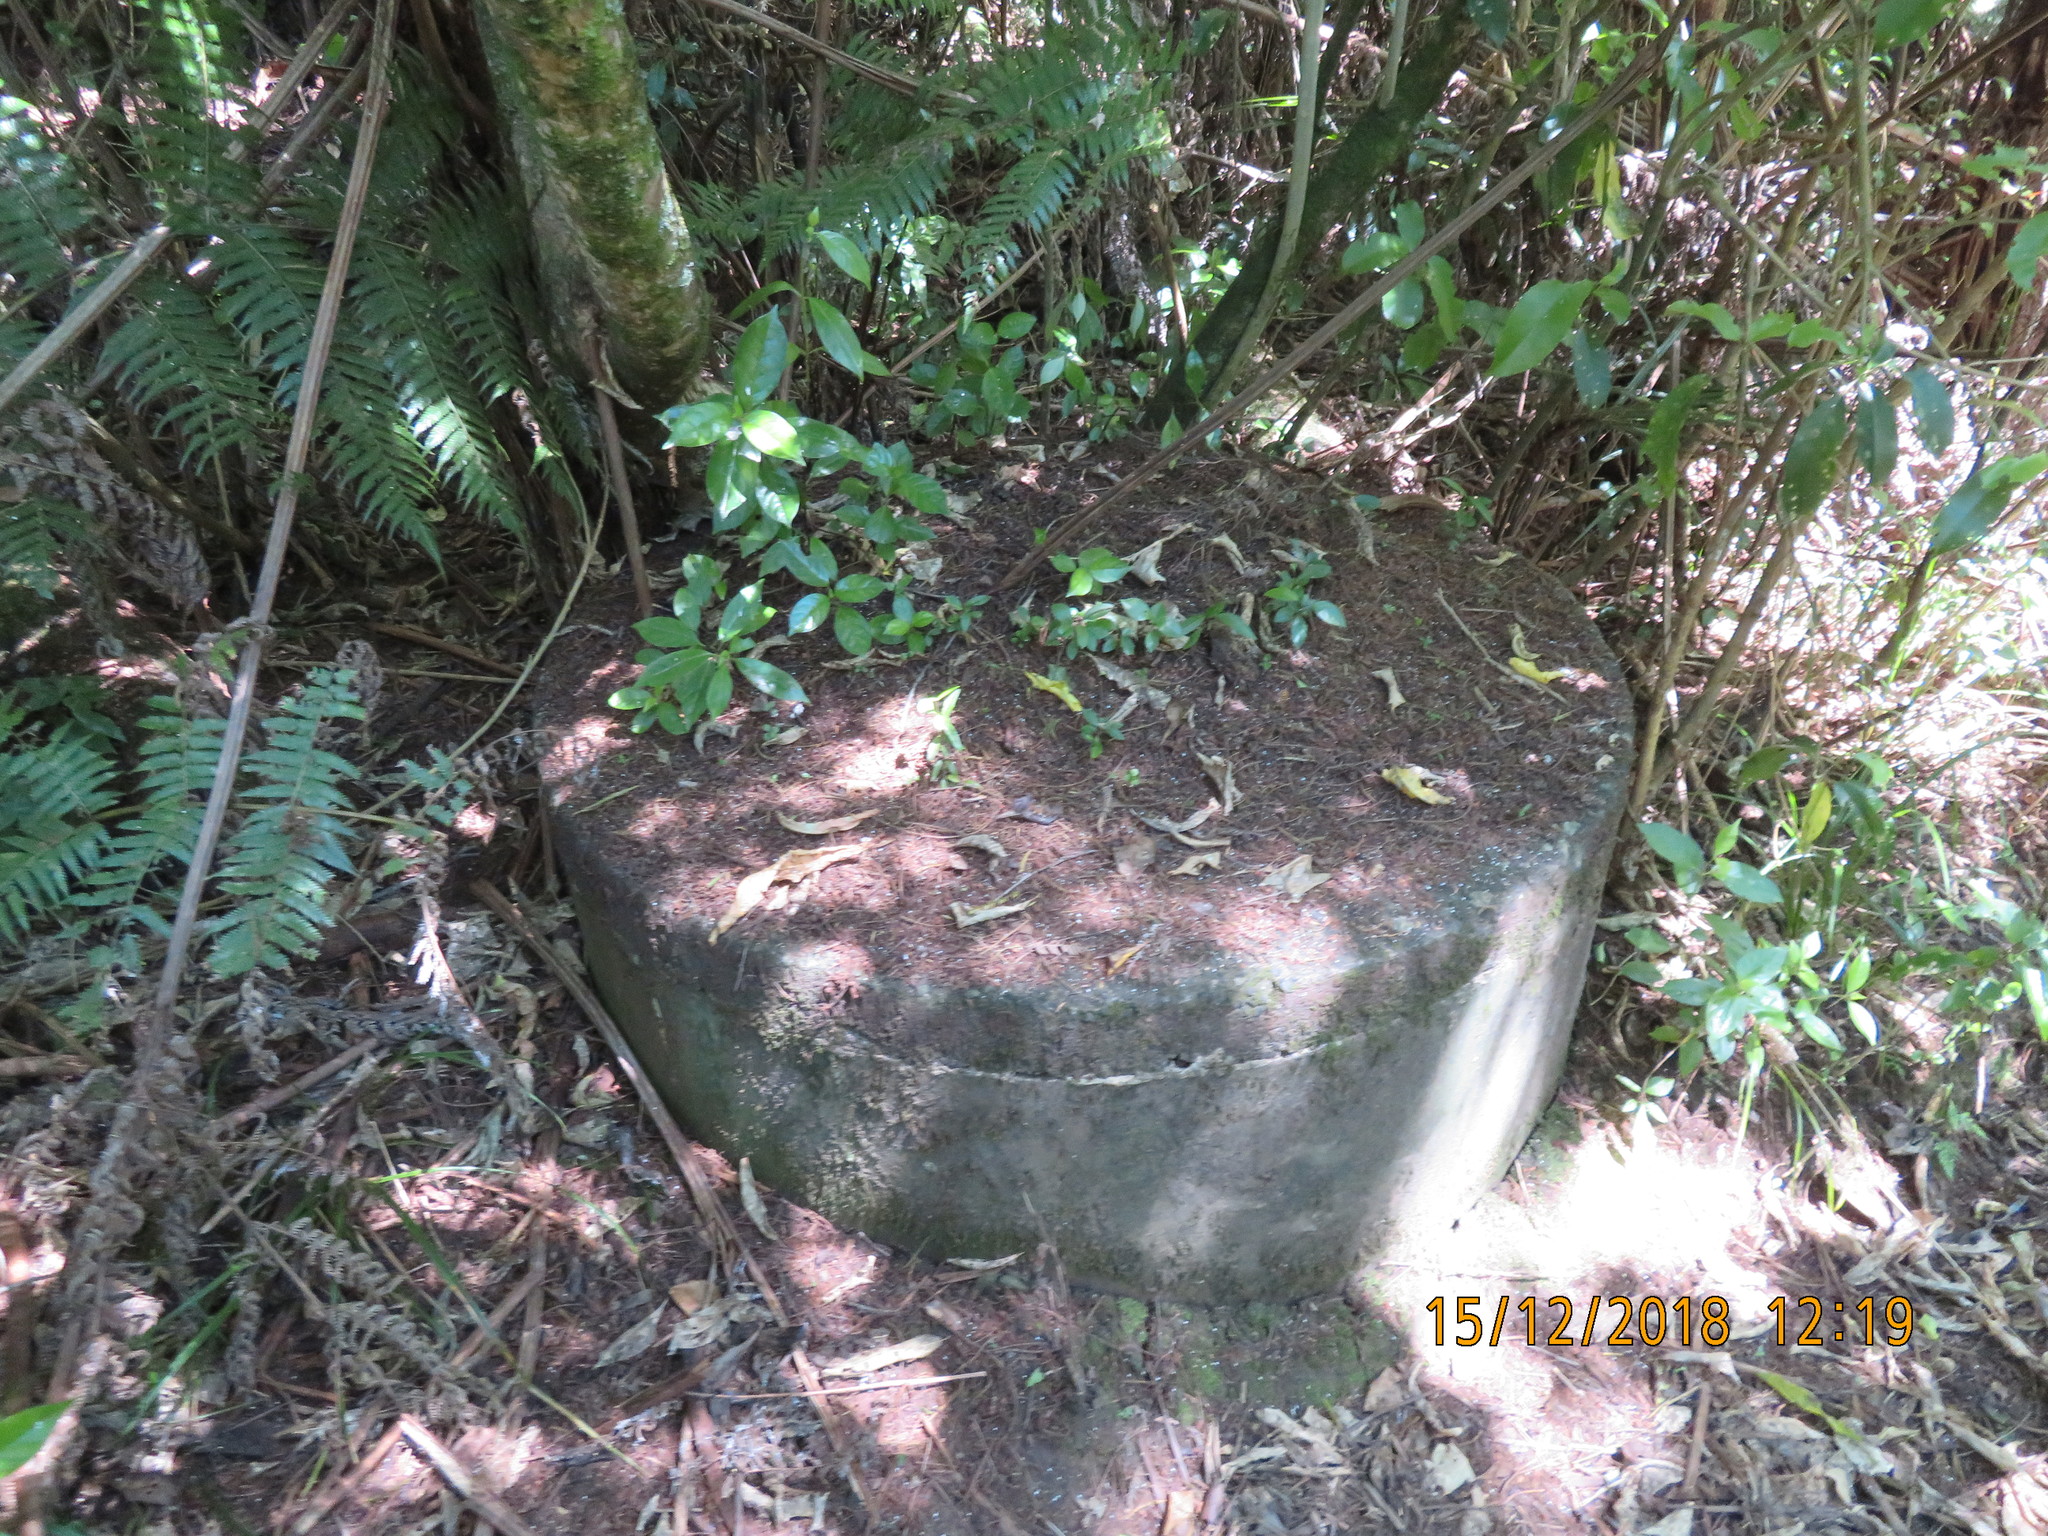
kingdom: Plantae
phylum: Tracheophyta
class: Magnoliopsida
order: Gentianales
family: Loganiaceae
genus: Geniostoma
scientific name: Geniostoma ligustrifolium
